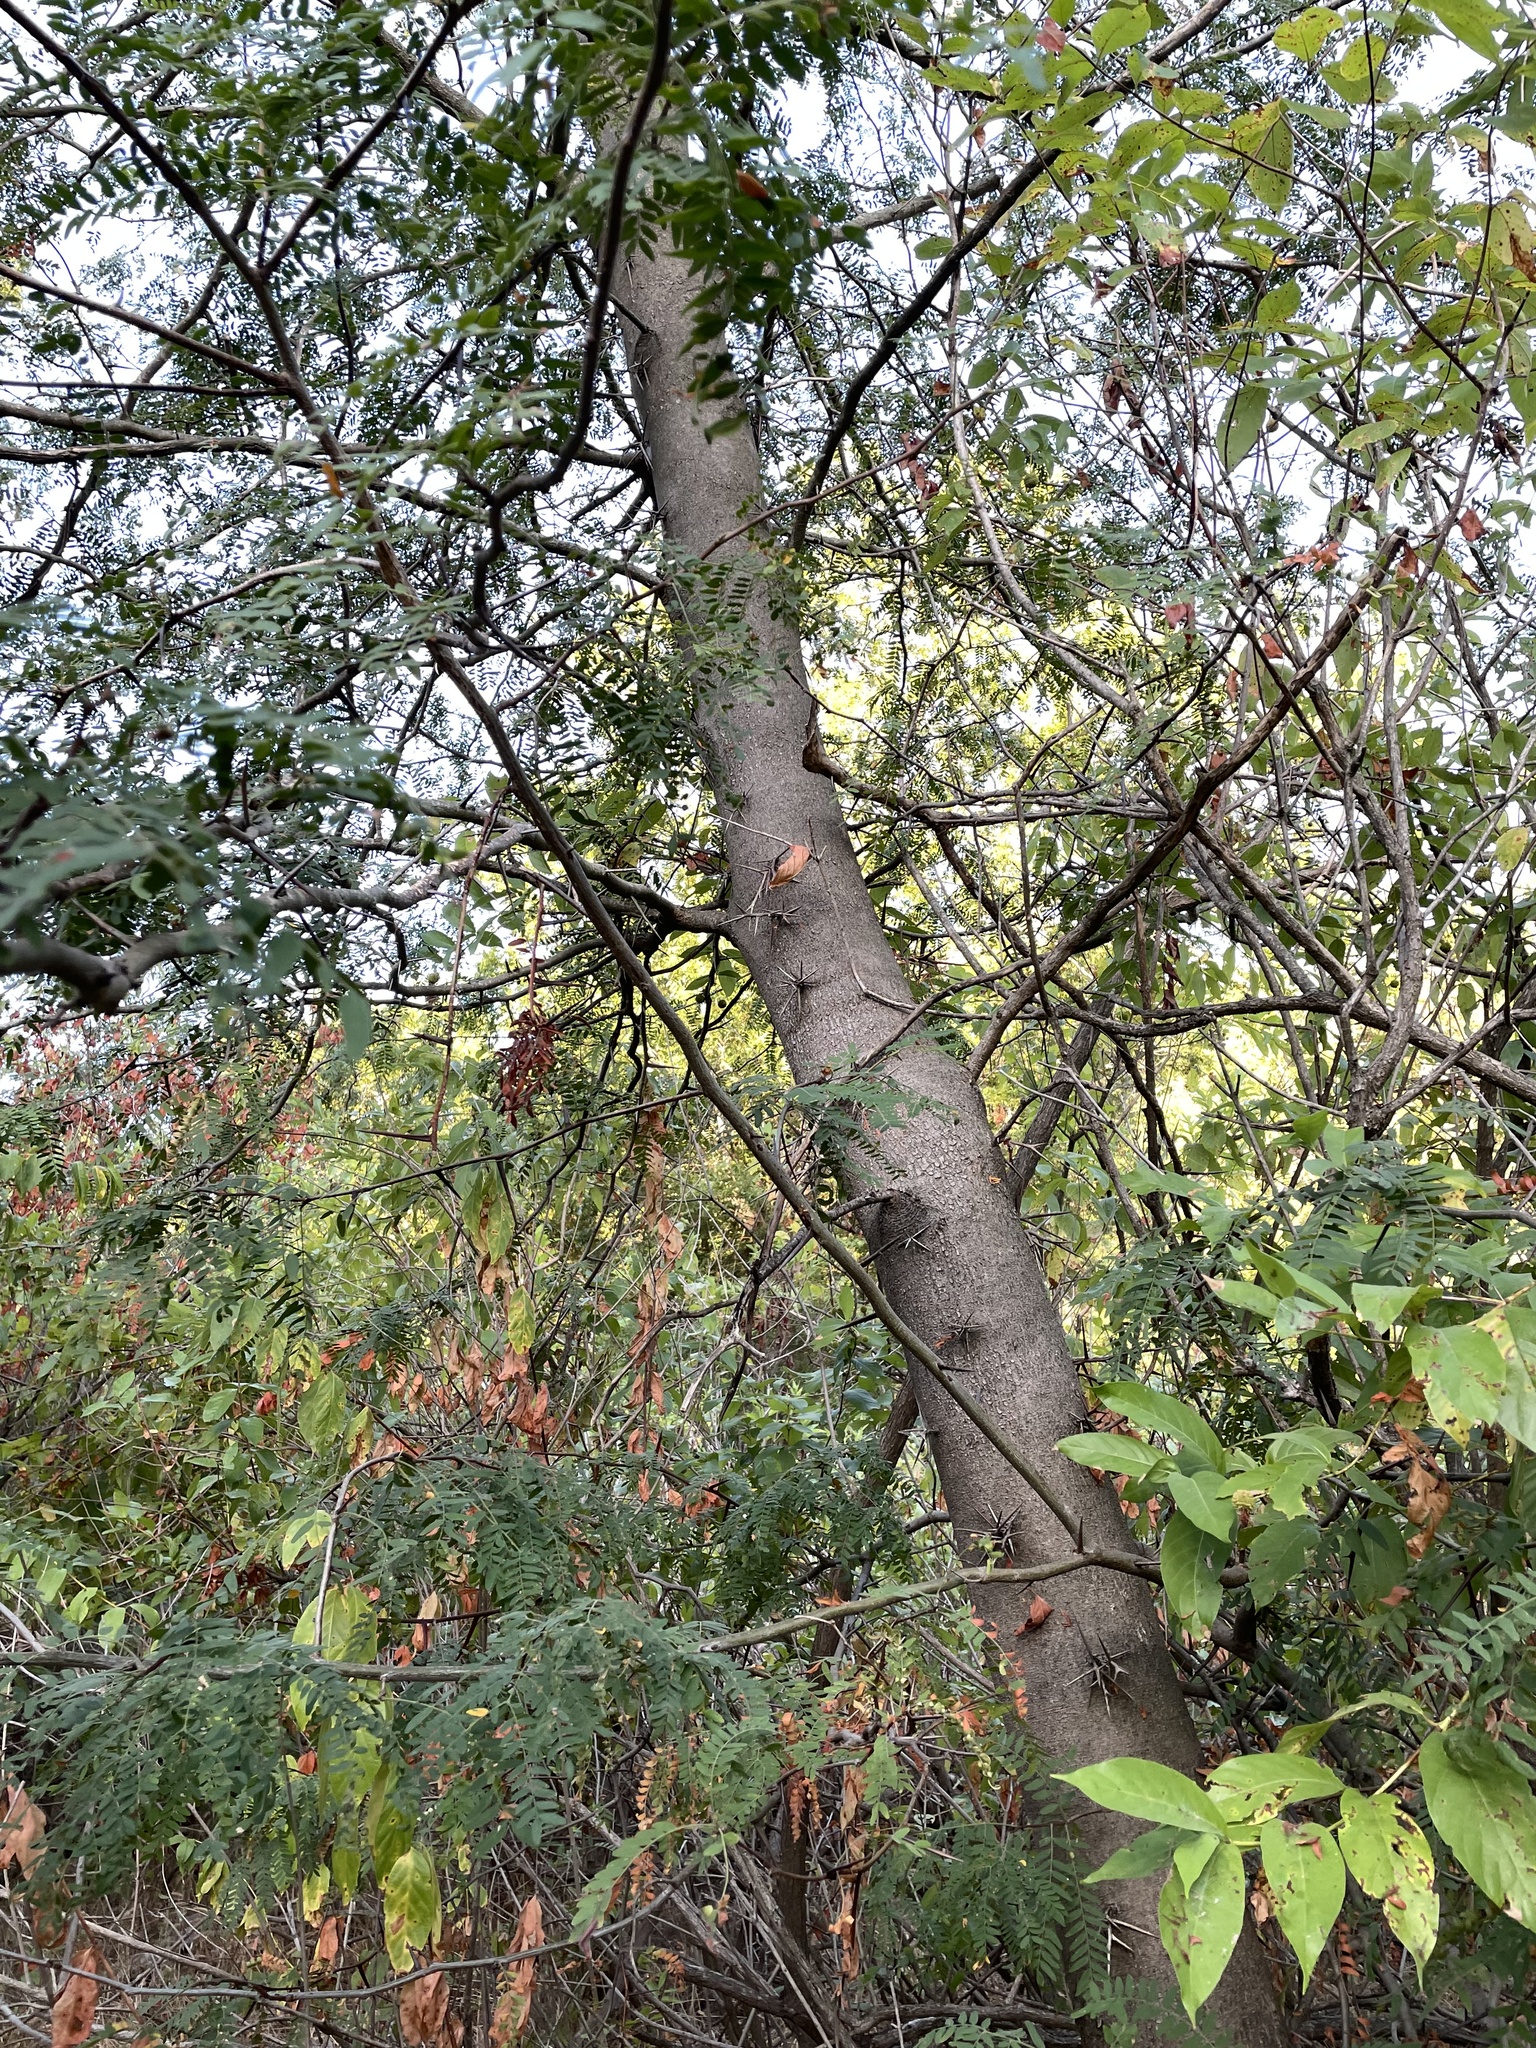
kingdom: Plantae
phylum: Tracheophyta
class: Magnoliopsida
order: Fabales
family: Fabaceae
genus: Gleditsia
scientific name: Gleditsia triacanthos
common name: Common honeylocust
